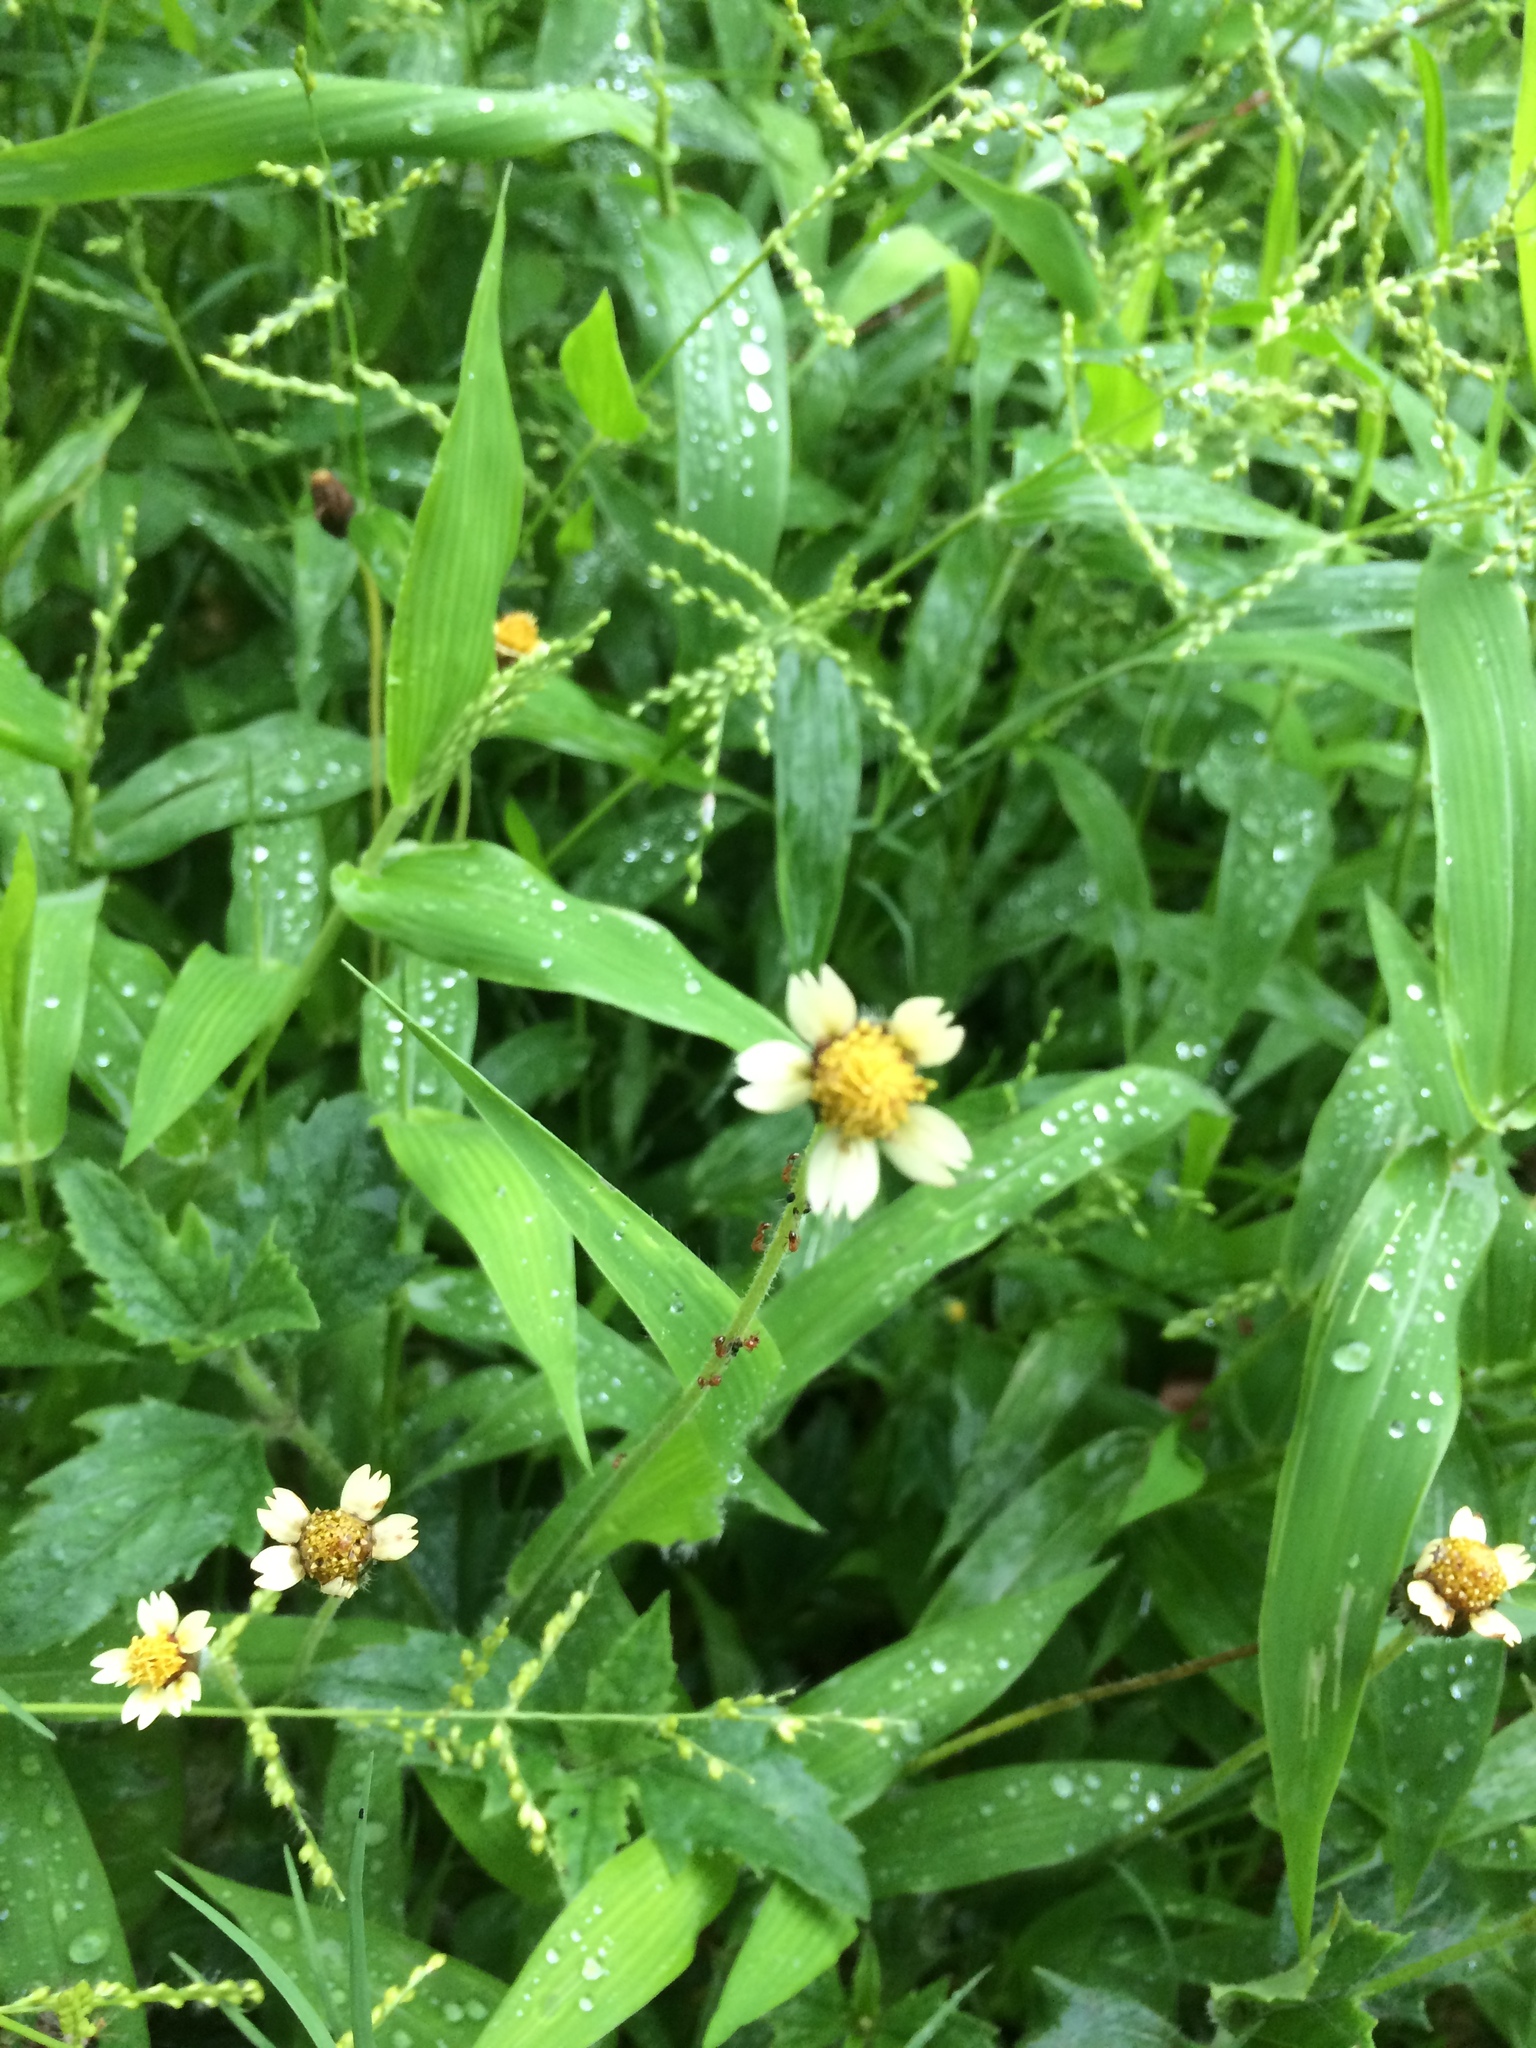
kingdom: Plantae
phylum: Tracheophyta
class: Magnoliopsida
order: Asterales
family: Asteraceae
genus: Tridax
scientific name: Tridax procumbens
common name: Coatbuttons
